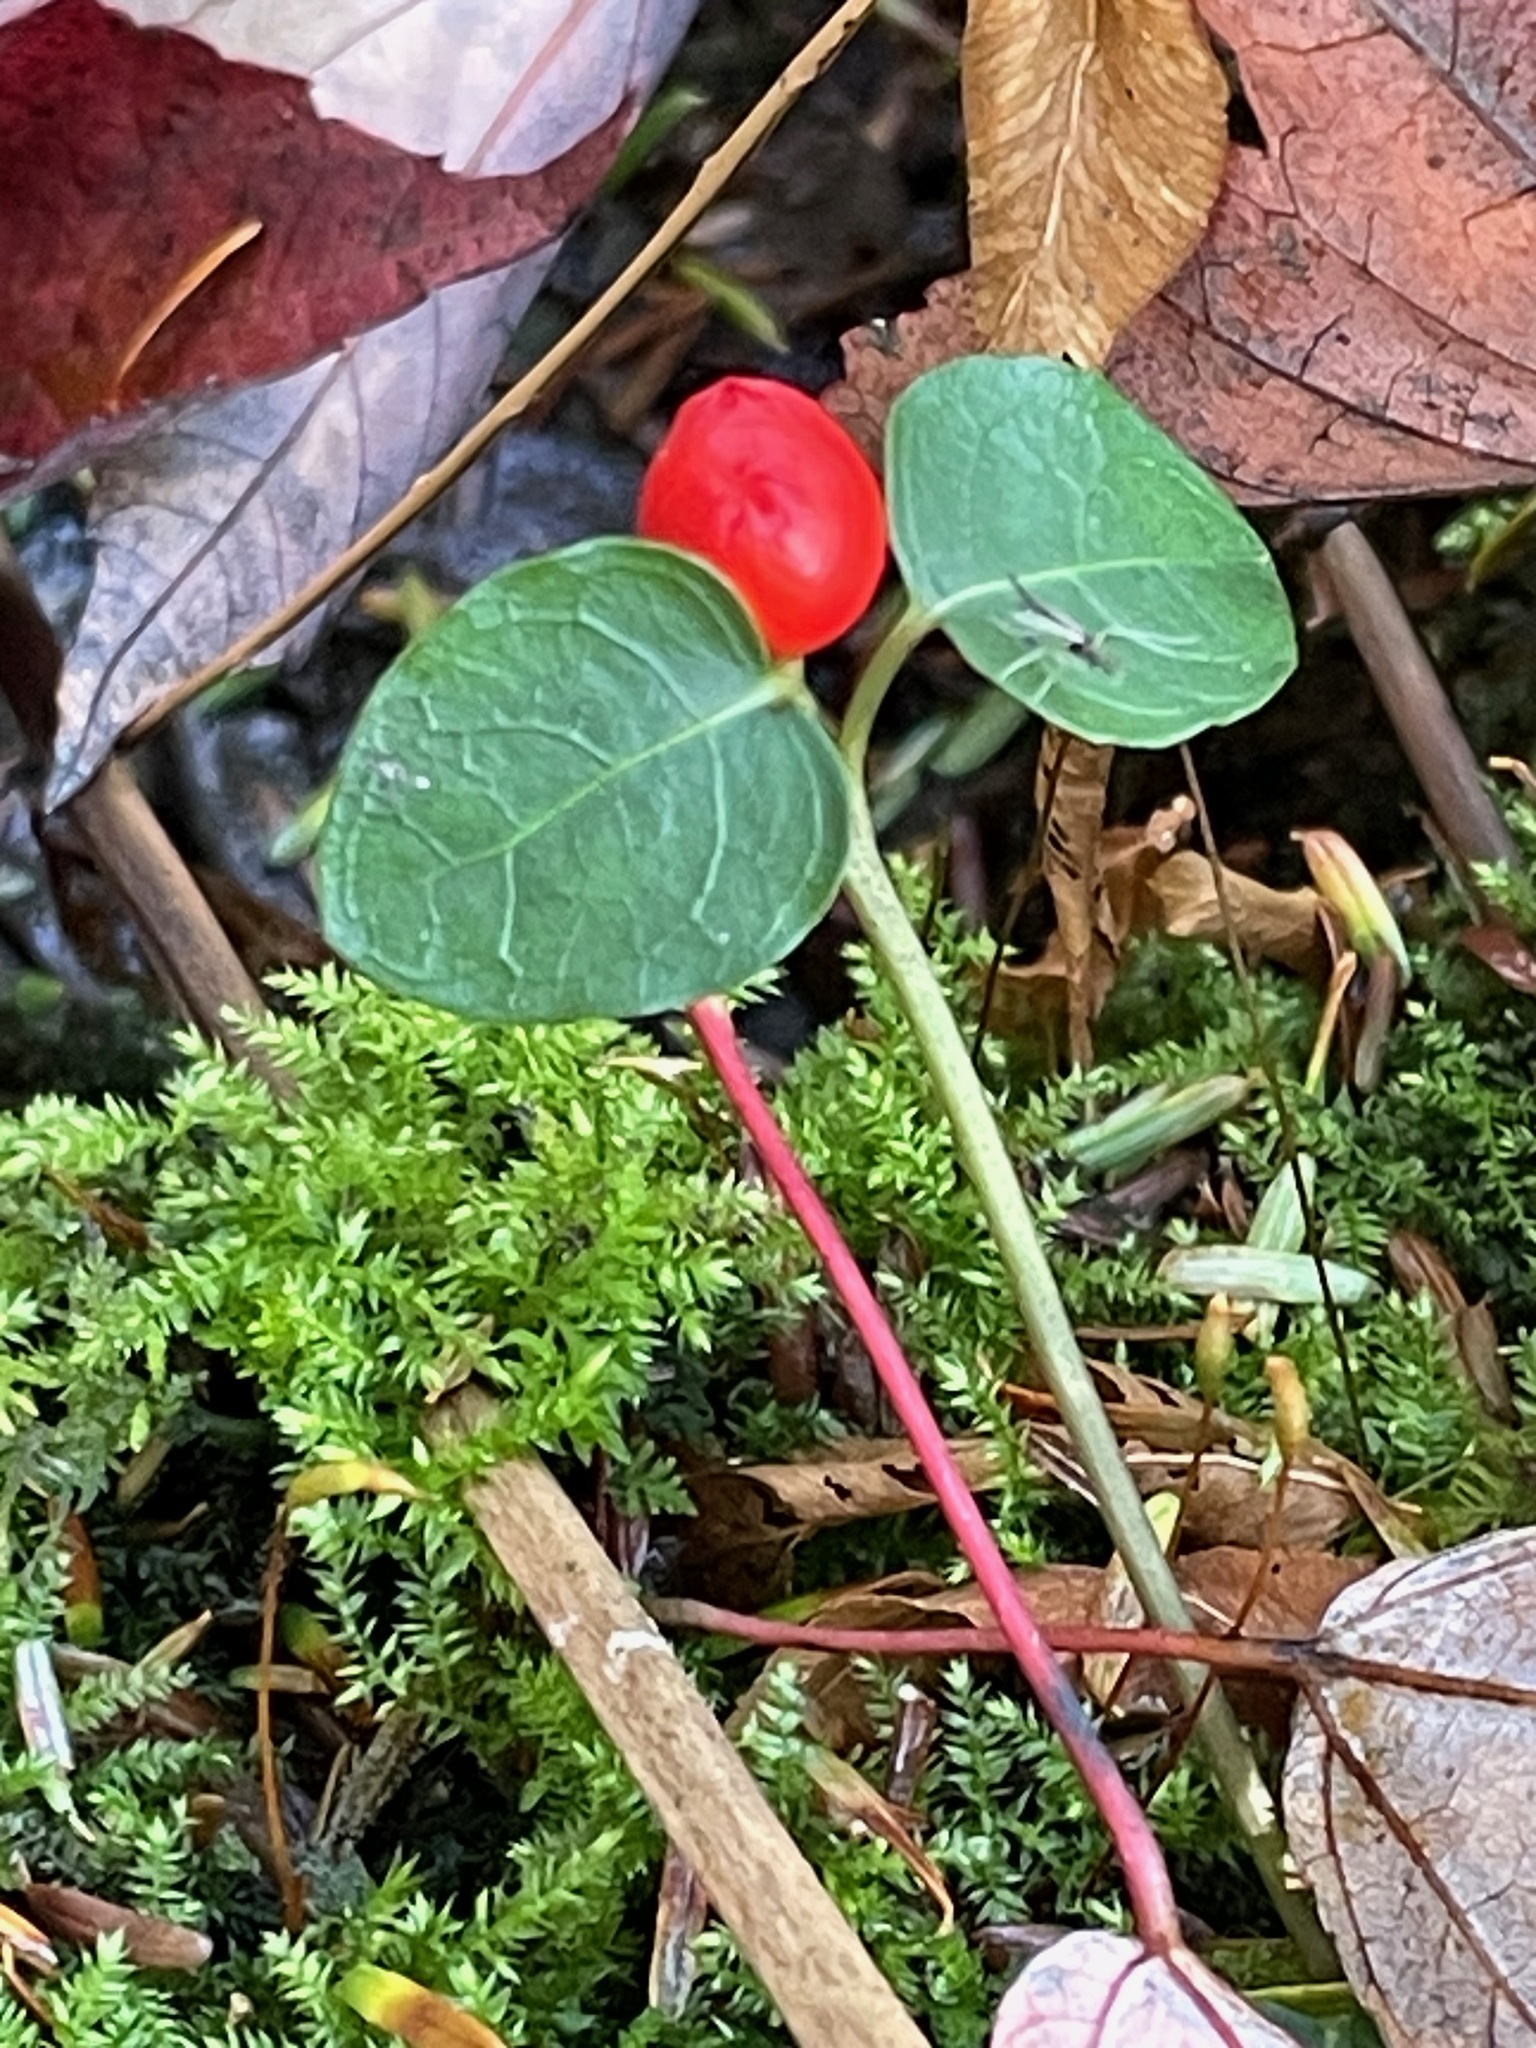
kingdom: Plantae
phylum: Tracheophyta
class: Magnoliopsida
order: Gentianales
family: Rubiaceae
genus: Mitchella
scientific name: Mitchella repens
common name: Partridge-berry
